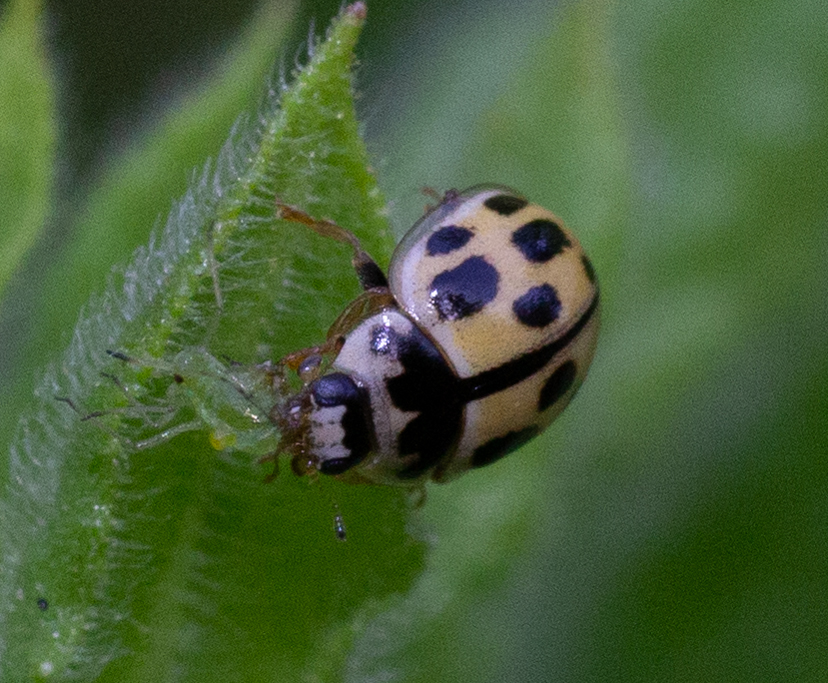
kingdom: Animalia
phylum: Arthropoda
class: Insecta
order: Coleoptera
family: Coccinellidae
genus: Propylaea
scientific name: Propylaea quatuordecimpunctata
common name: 14-spotted ladybird beetle
